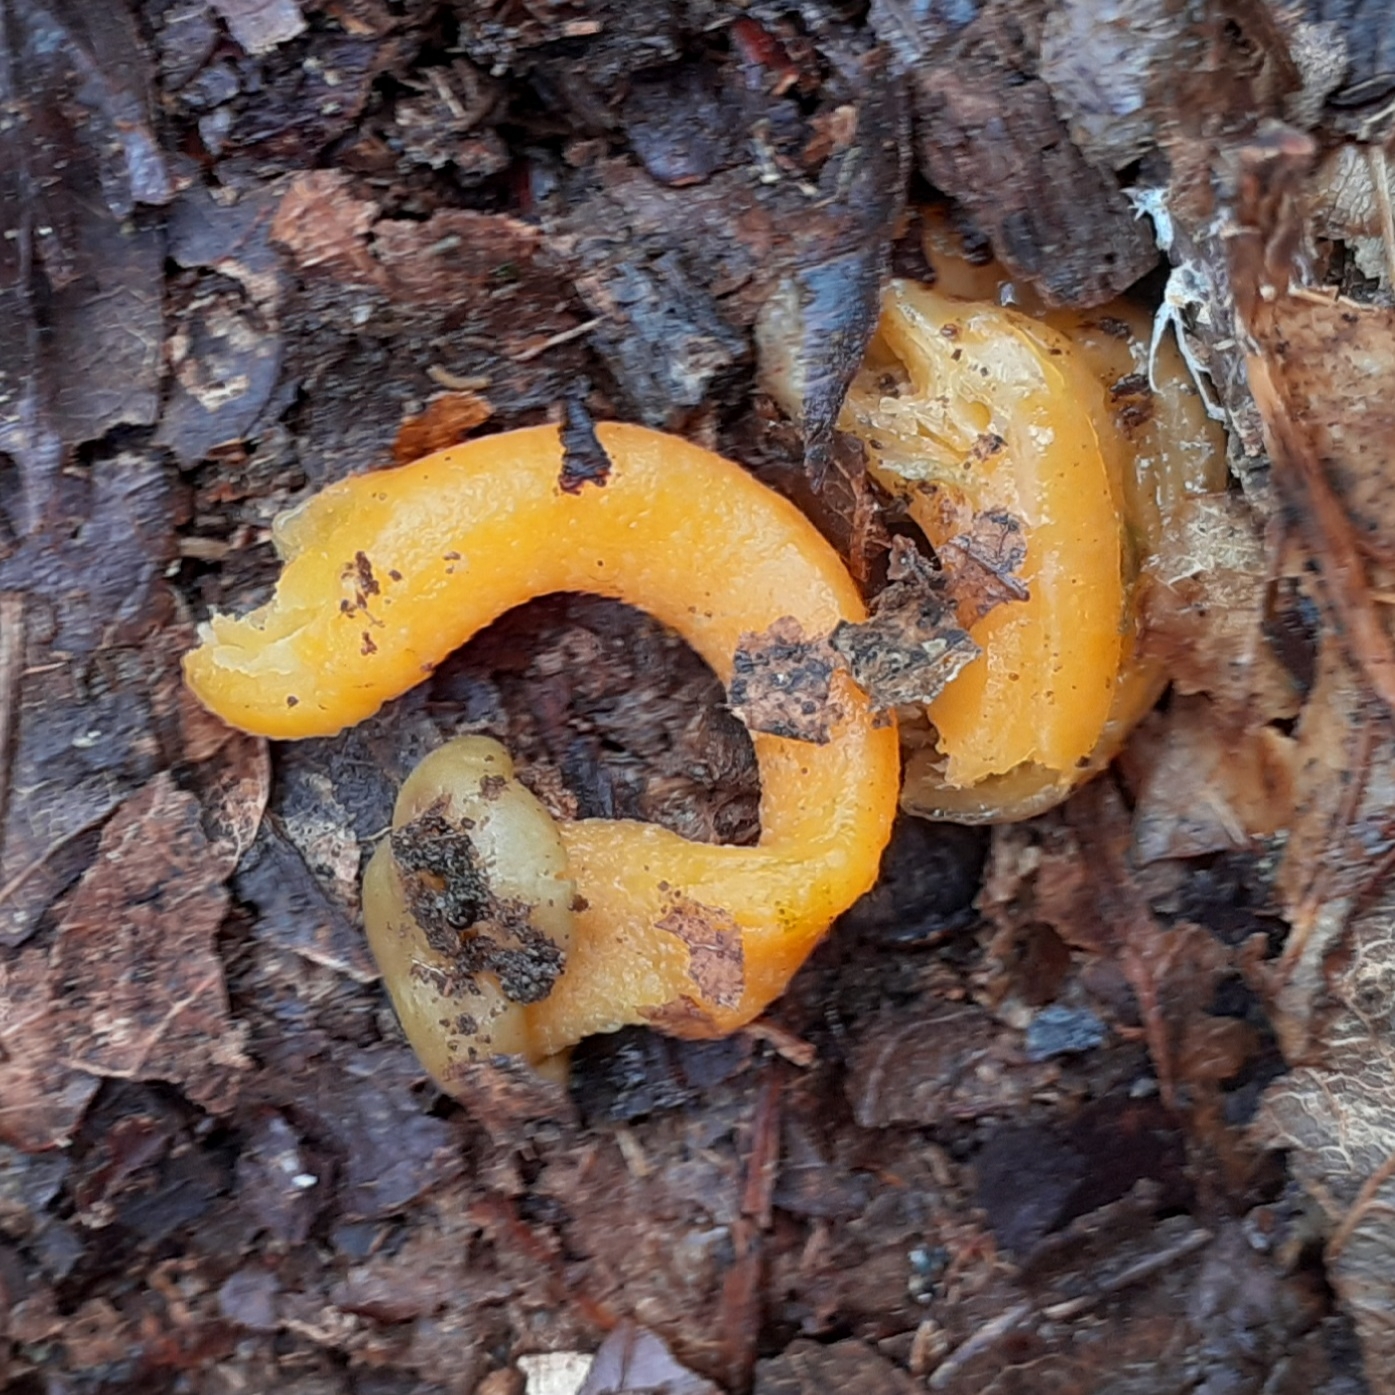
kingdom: Fungi
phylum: Ascomycota
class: Leotiomycetes
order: Leotiales
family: Leotiaceae
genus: Leotia
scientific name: Leotia lubrica
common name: Jellybaby
